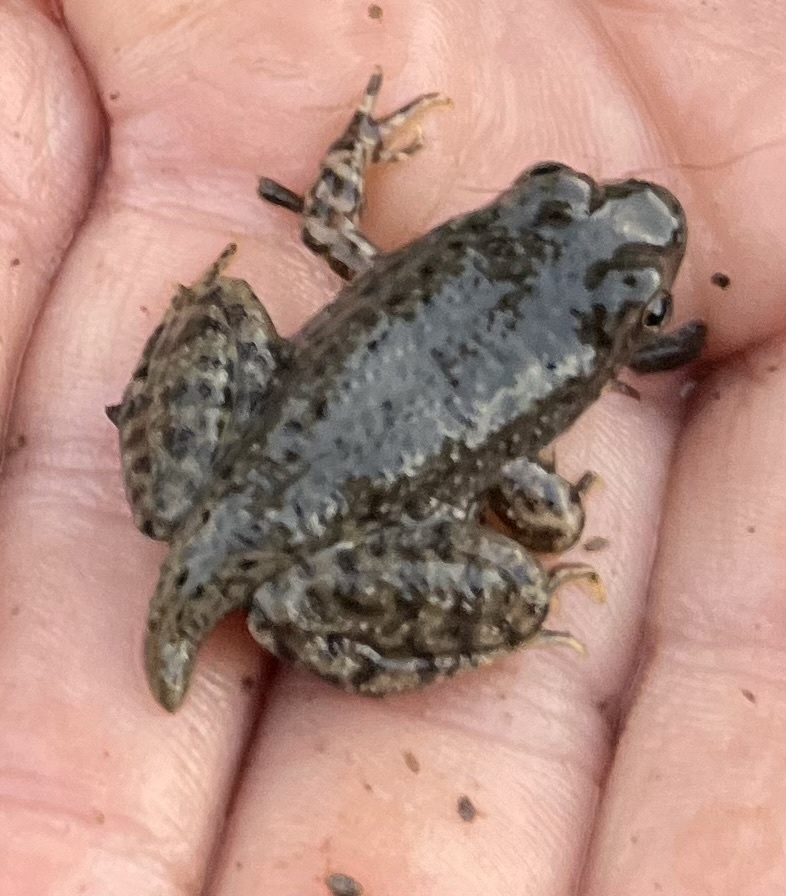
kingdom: Animalia
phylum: Chordata
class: Amphibia
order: Anura
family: Ranidae
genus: Lithobates
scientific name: Lithobates clamitans
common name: Green frog
